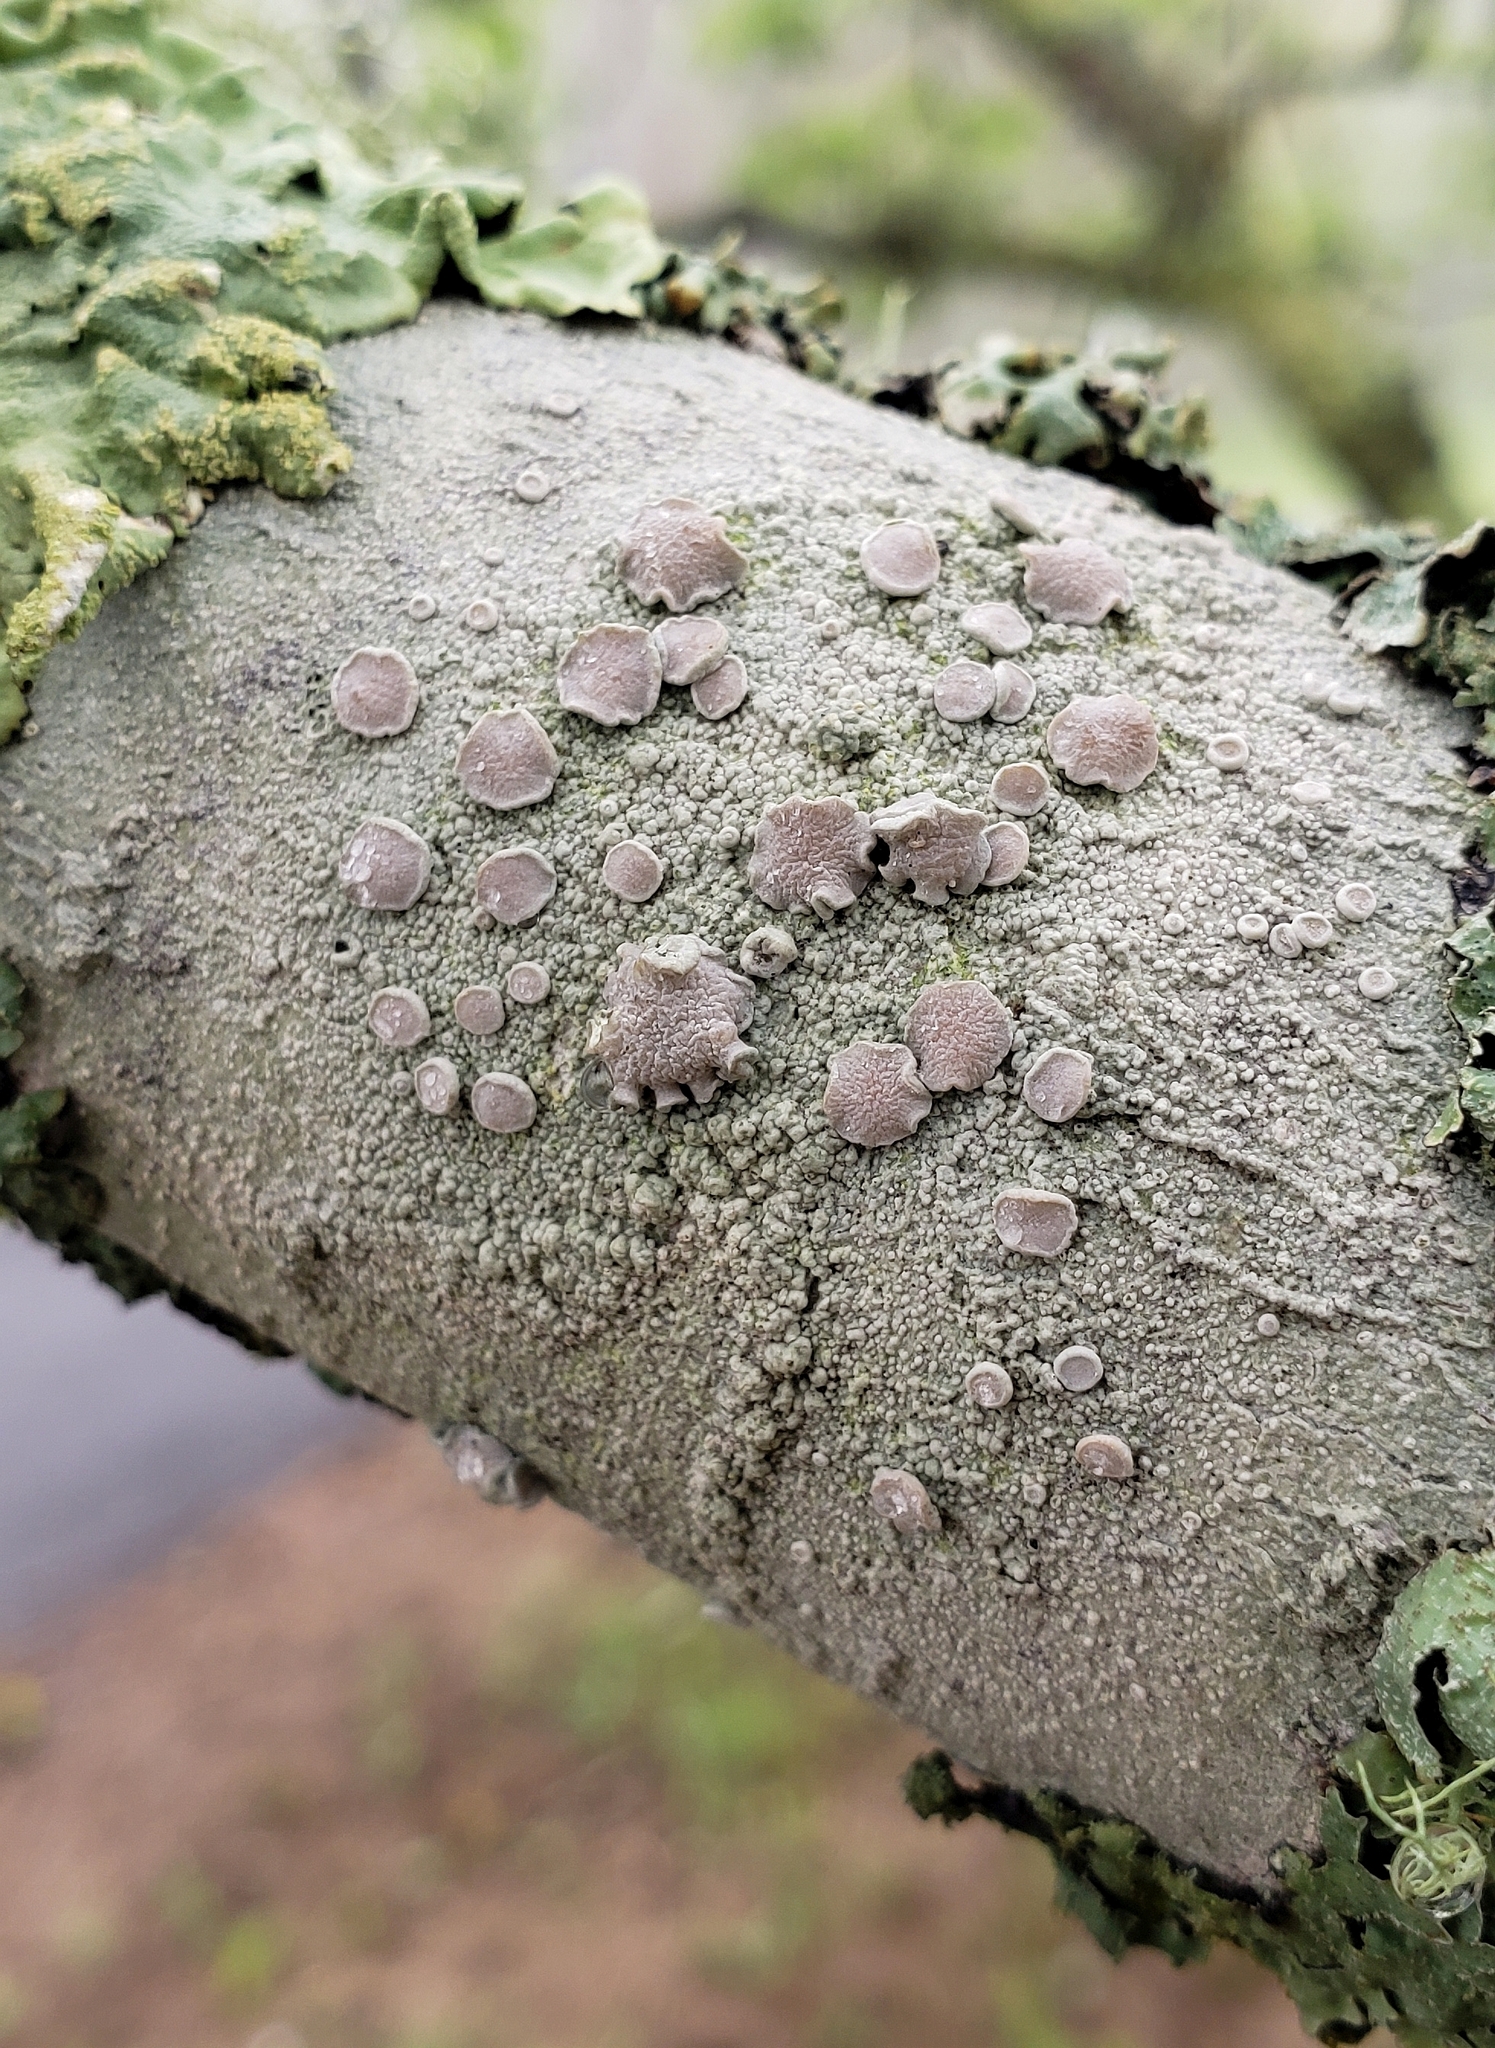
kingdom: Fungi
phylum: Ascomycota
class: Lecanoromycetes
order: Lecanorales
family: Lecanoraceae
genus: Lecanora
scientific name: Lecanora caesiorubella
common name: Frosted rim-lichen
